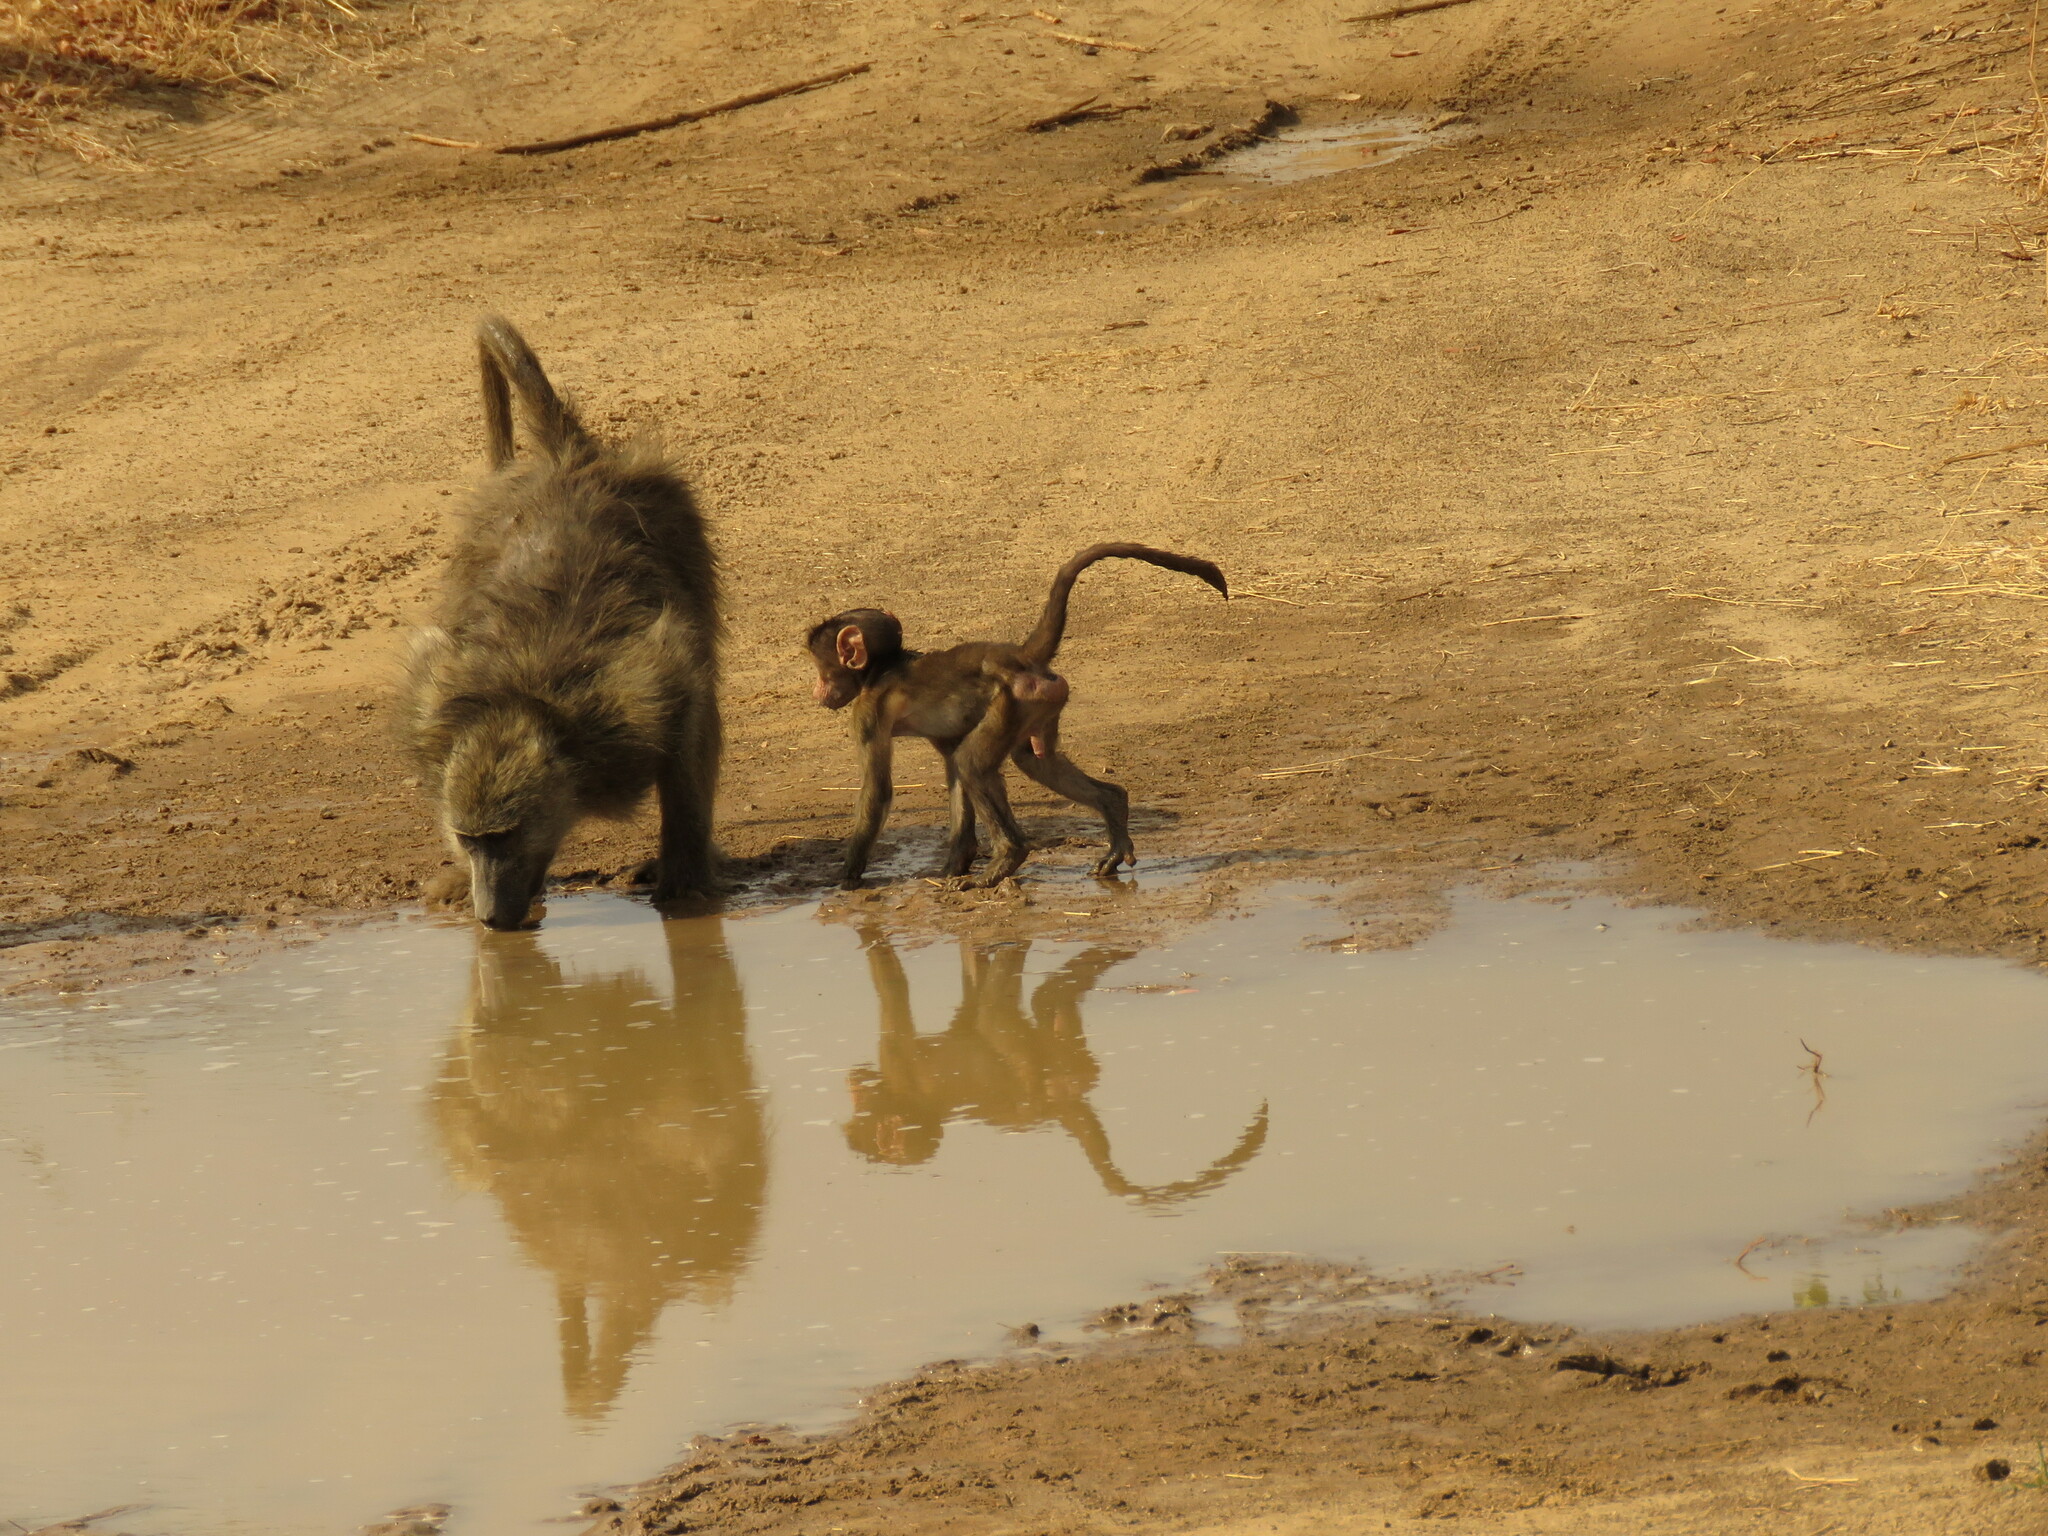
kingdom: Animalia
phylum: Chordata
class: Mammalia
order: Primates
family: Cercopithecidae
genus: Papio
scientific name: Papio ursinus
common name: Chacma baboon
